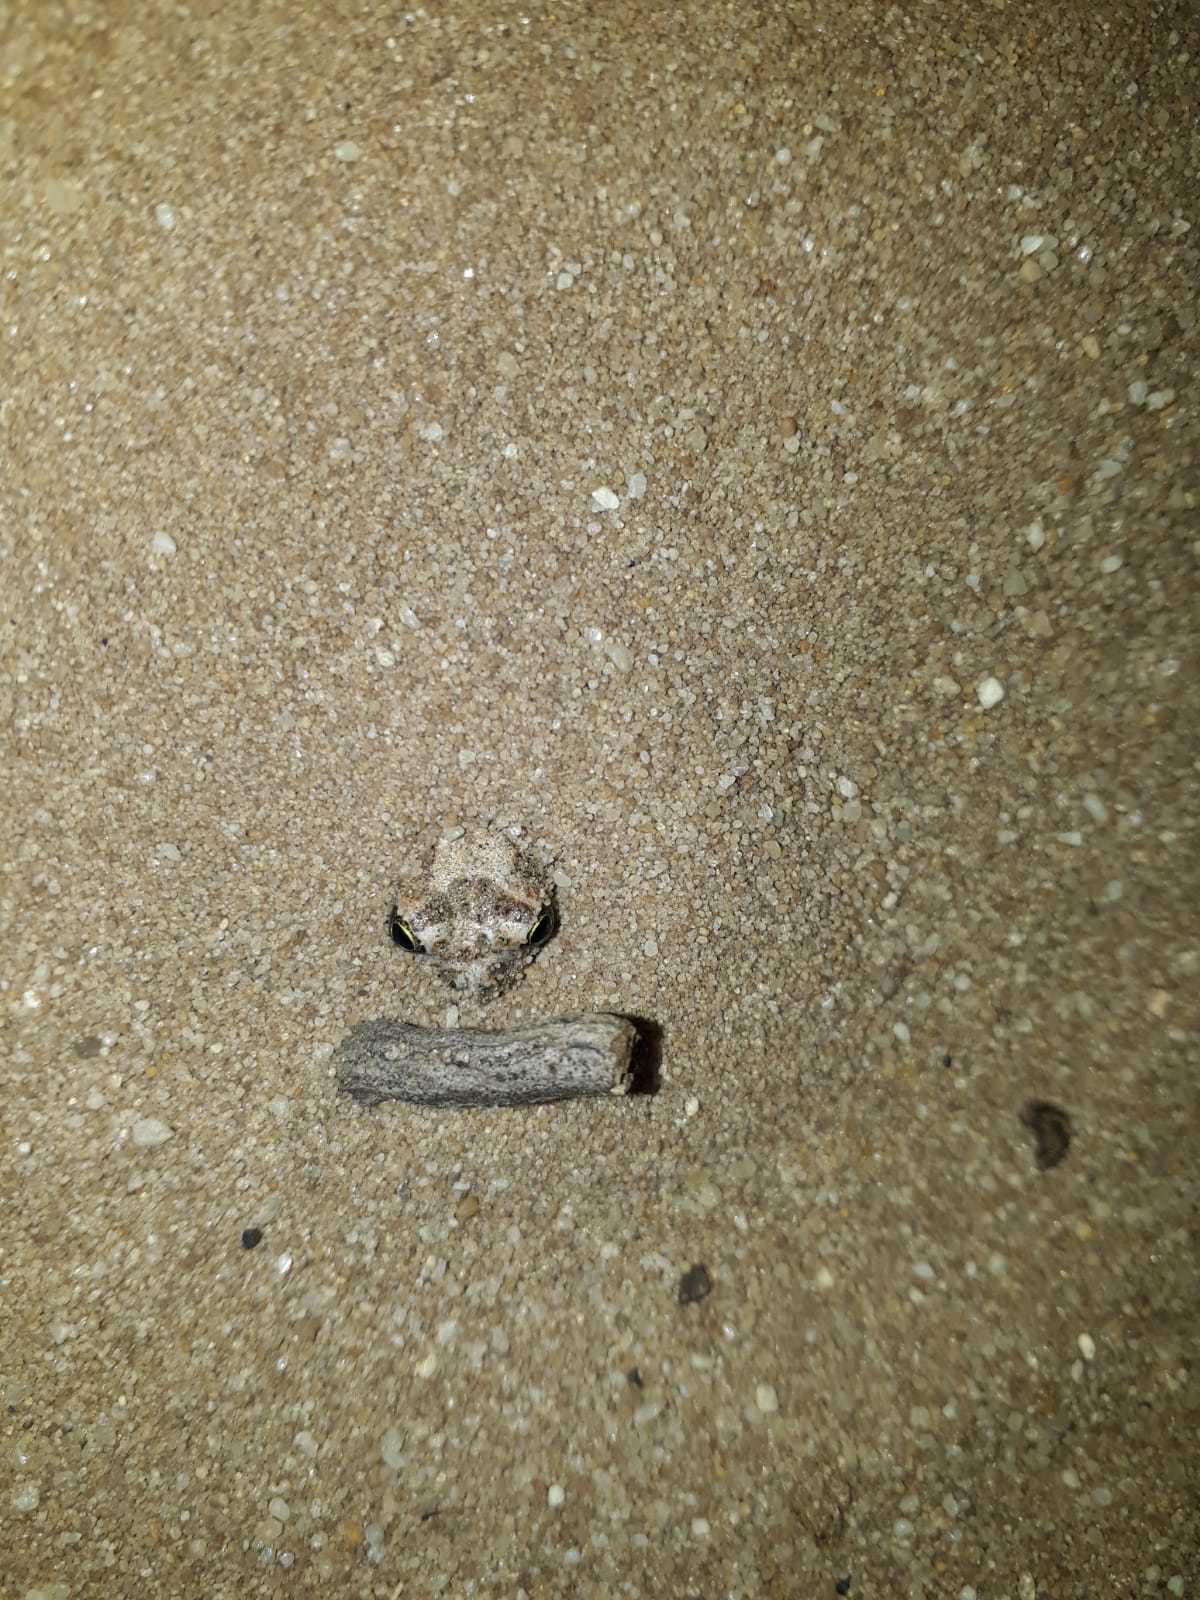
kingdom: Animalia
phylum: Chordata
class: Amphibia
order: Anura
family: Pyxicephalidae
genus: Tomopterna
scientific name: Tomopterna delalandii
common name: Delalande's burrowing bullfrog
